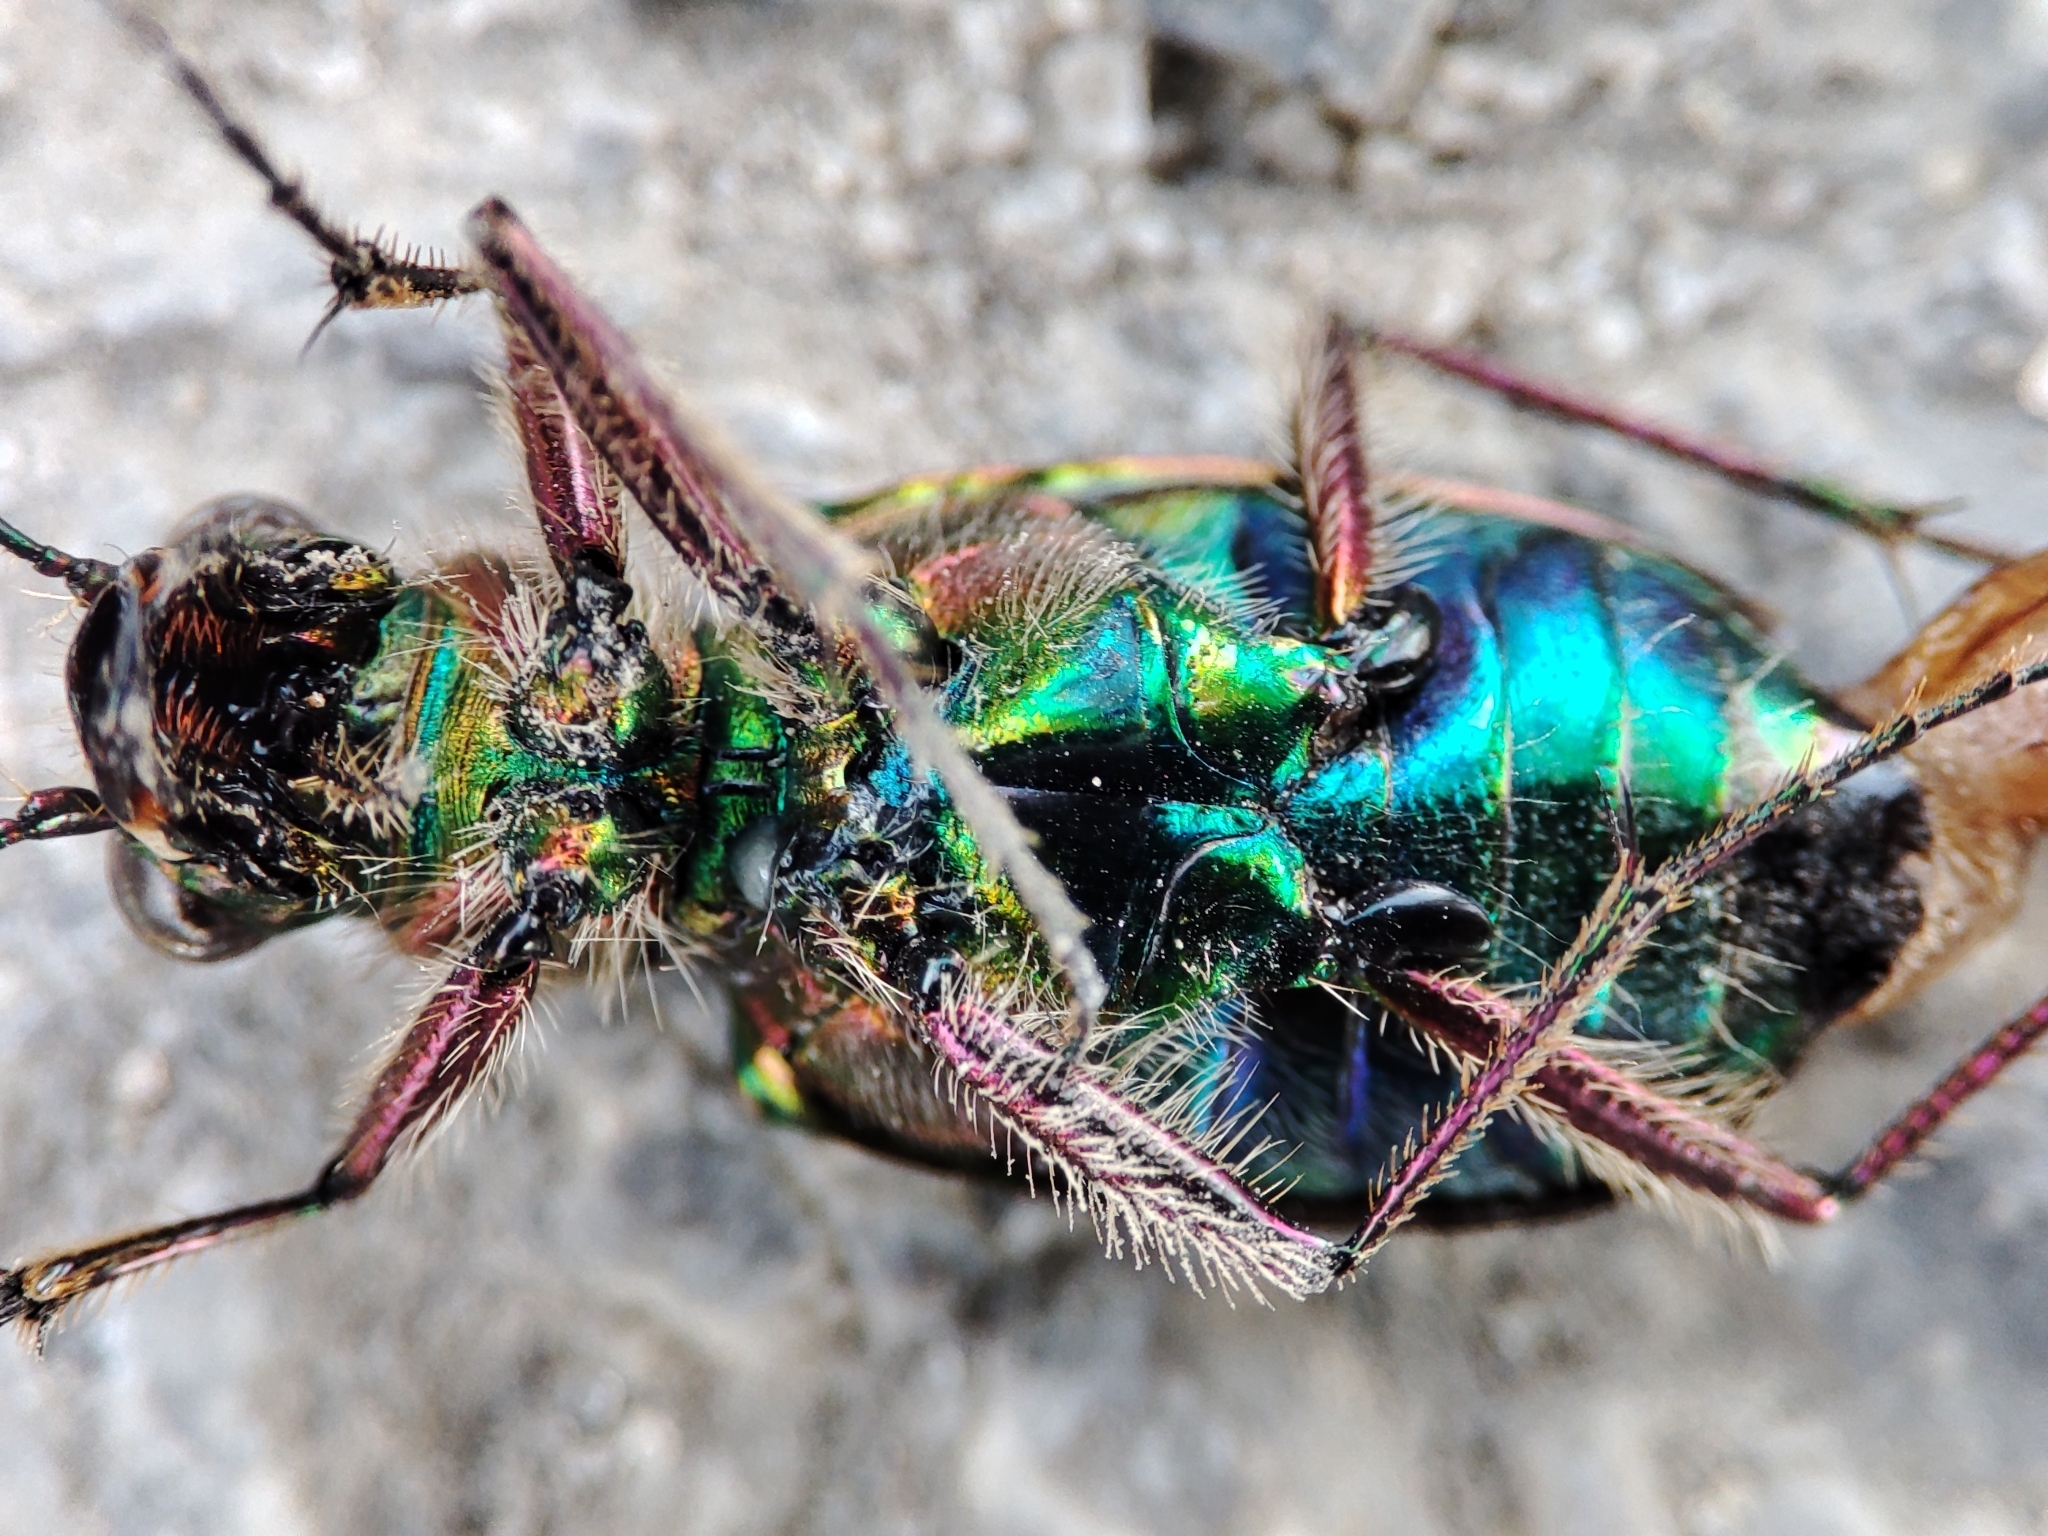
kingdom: Animalia
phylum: Arthropoda
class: Insecta
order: Coleoptera
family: Carabidae
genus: Cicindela
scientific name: Cicindela campestris
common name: Common tiger beetle
